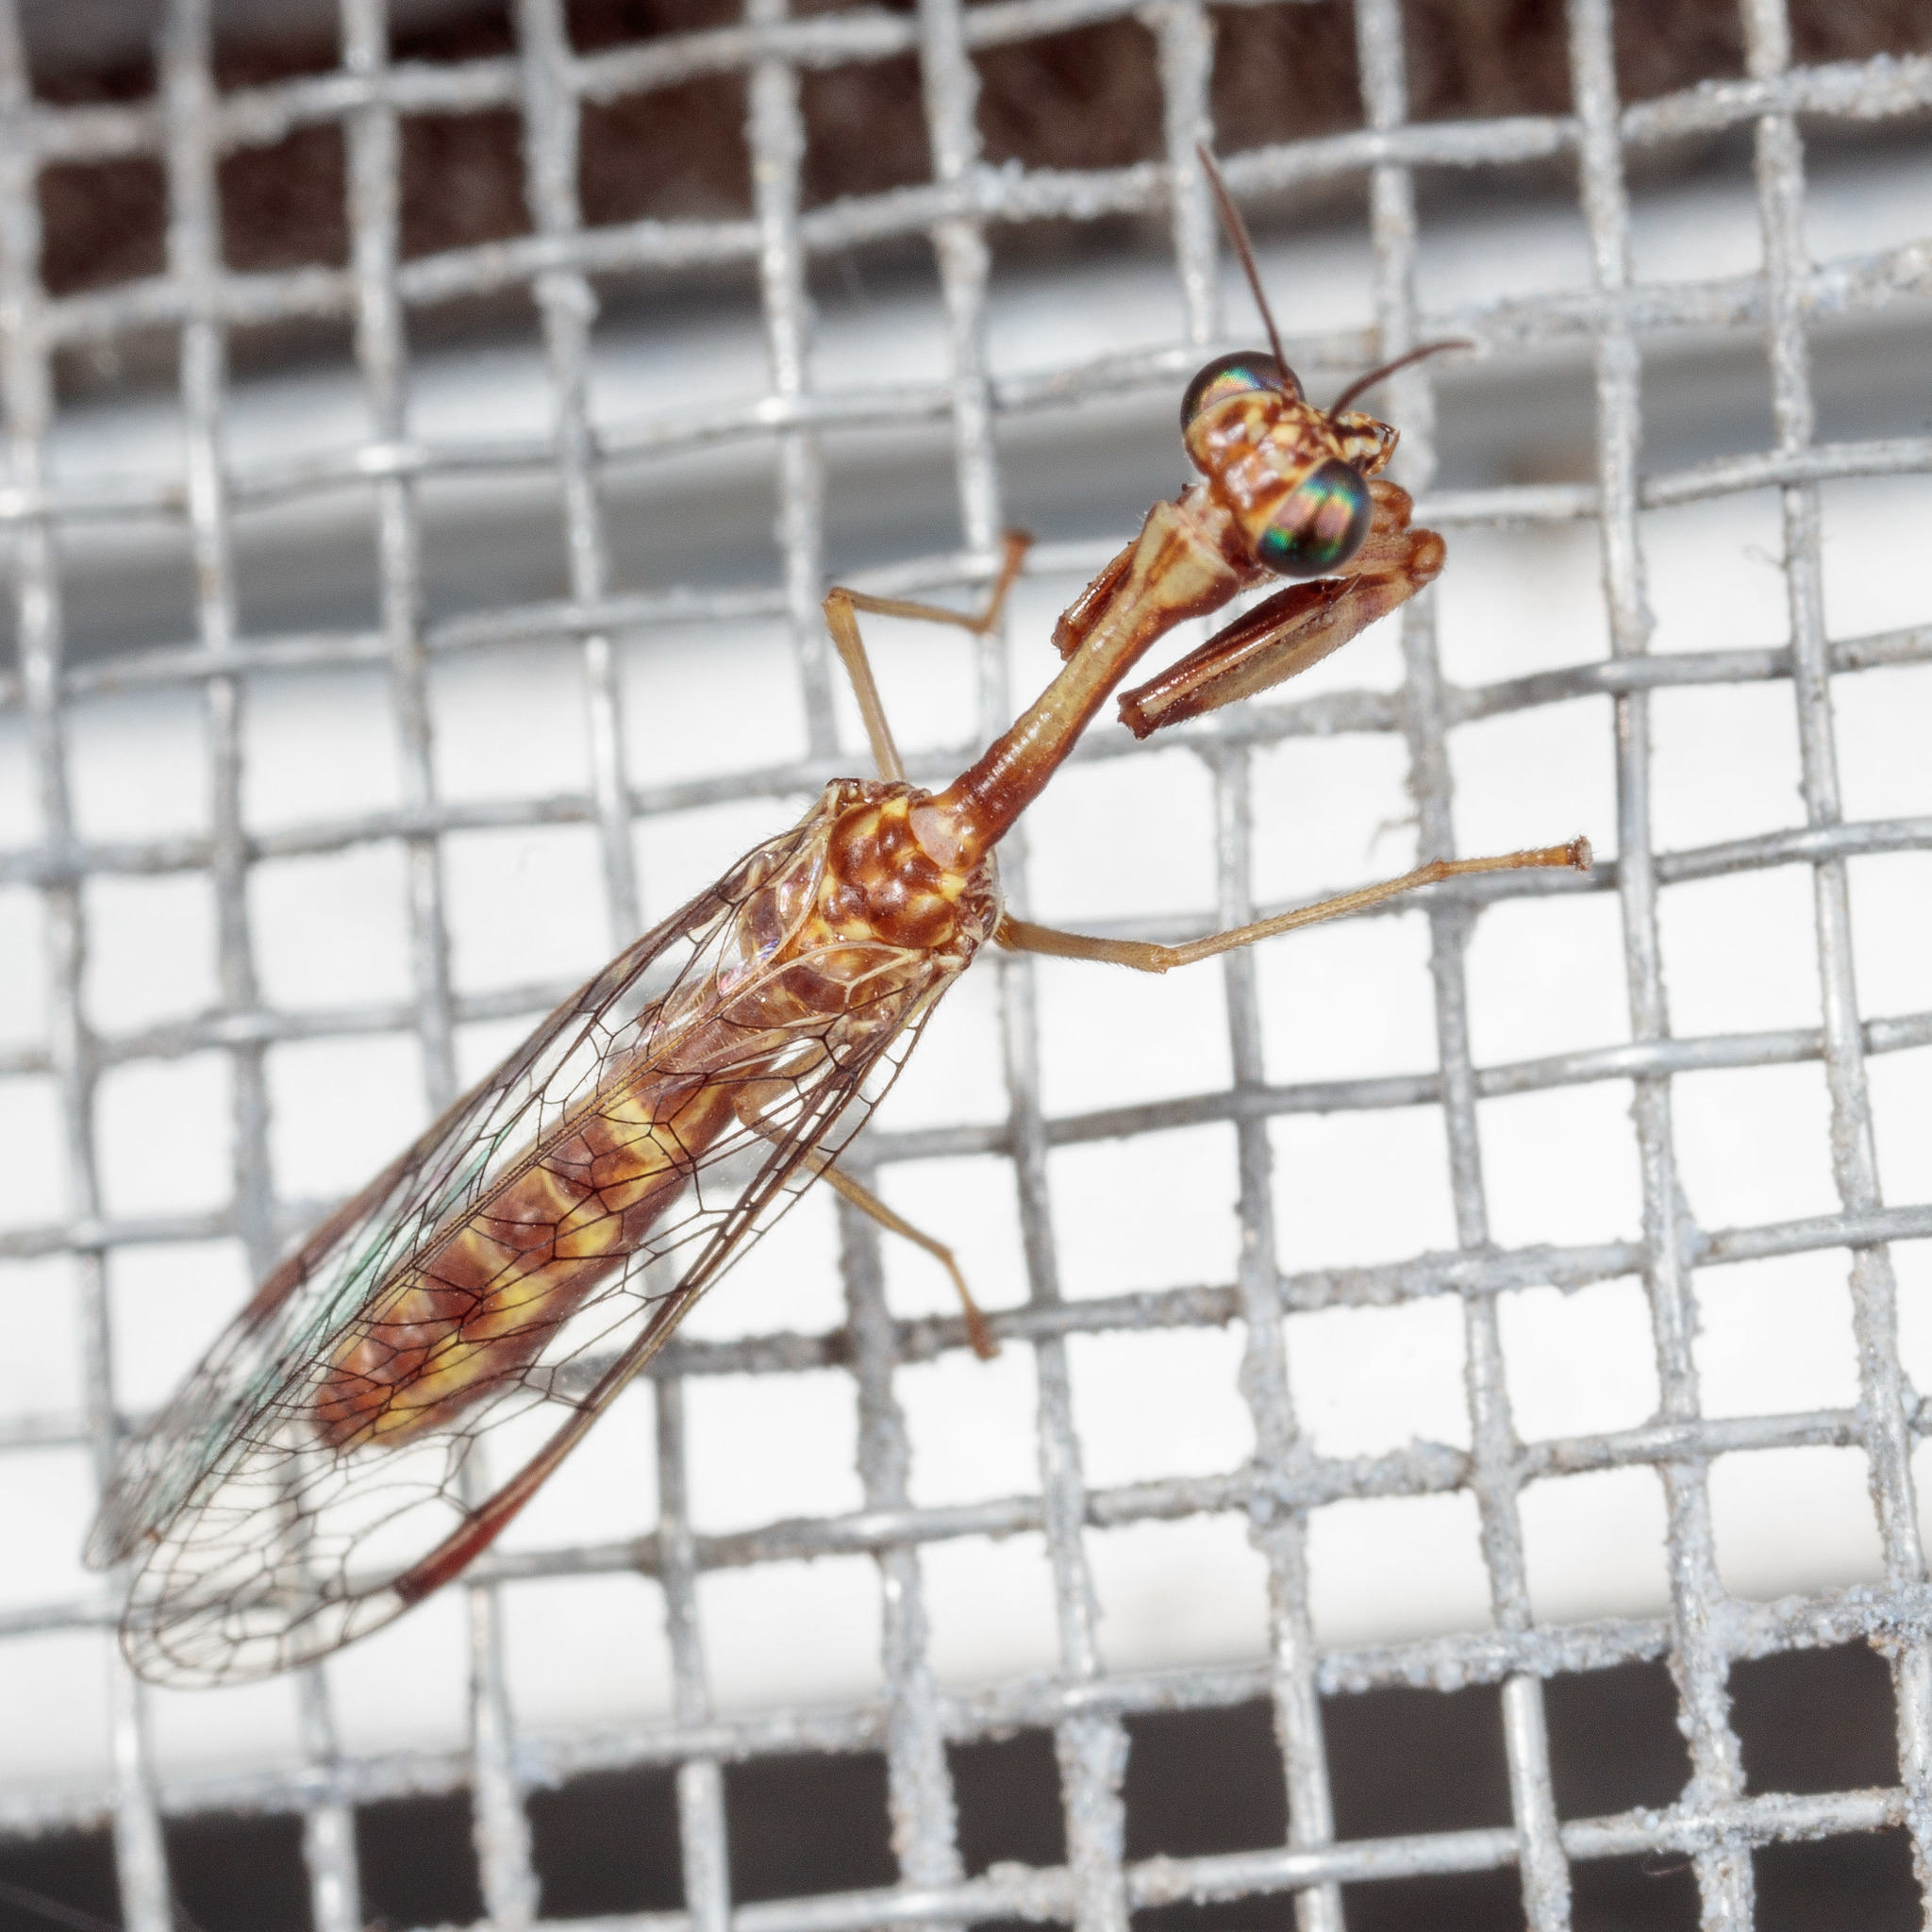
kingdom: Animalia
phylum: Arthropoda
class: Insecta
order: Neuroptera
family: Mantispidae
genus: Leptomantispa
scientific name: Leptomantispa pulchella
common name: Stevens's mantidfly
